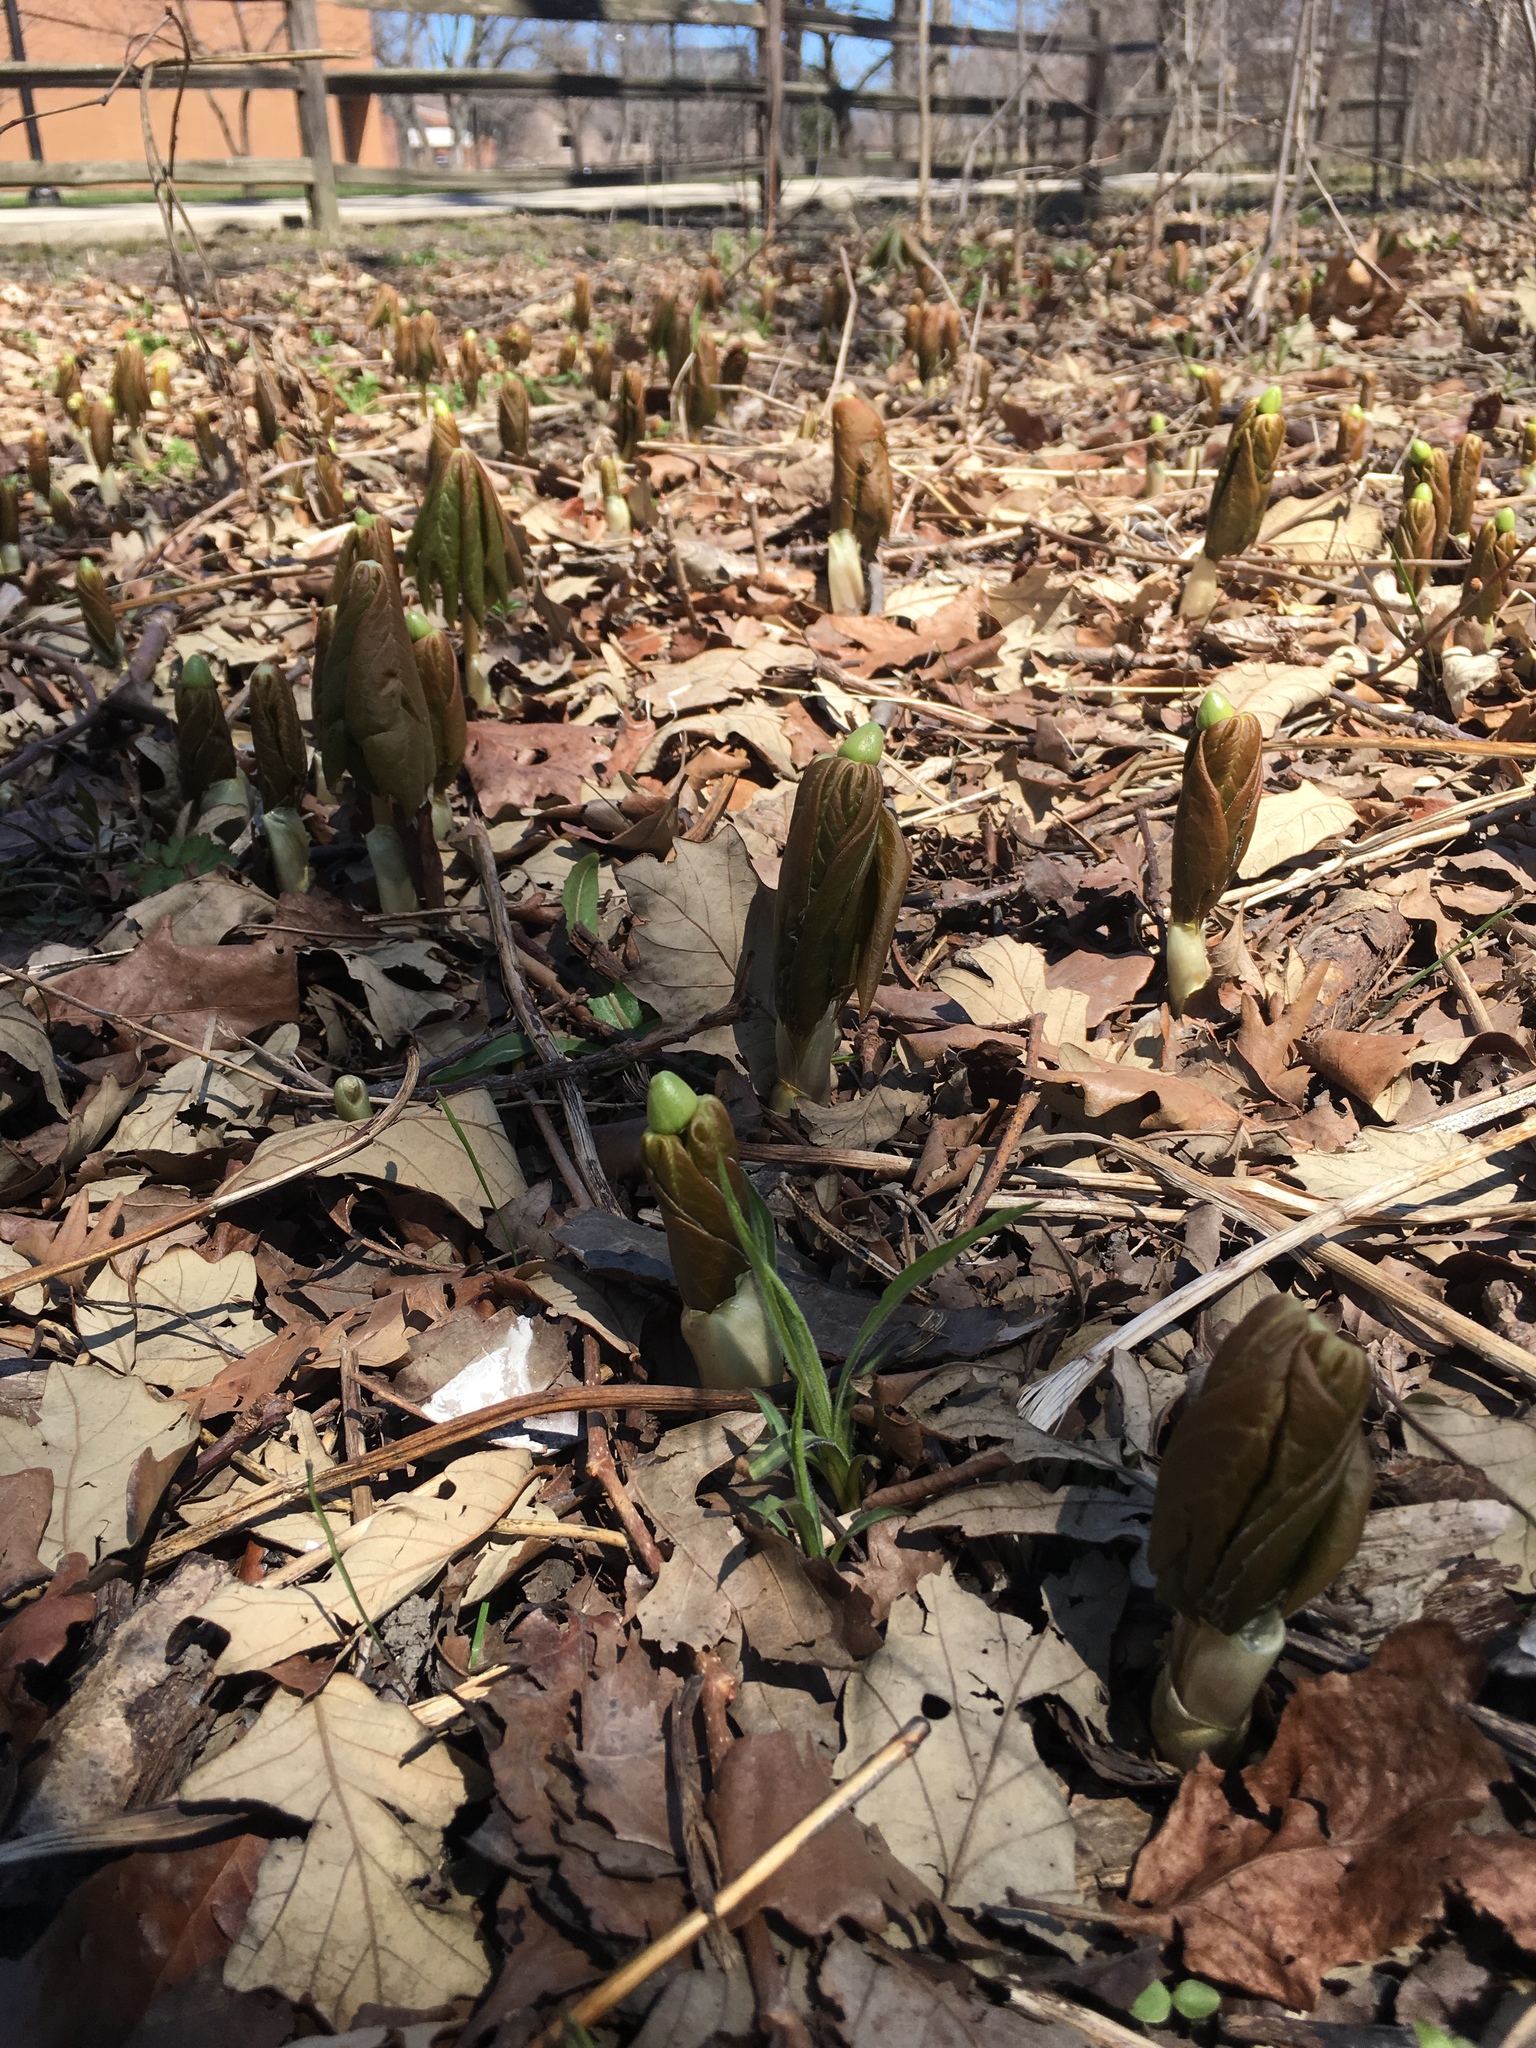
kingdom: Plantae
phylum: Tracheophyta
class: Magnoliopsida
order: Ranunculales
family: Berberidaceae
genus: Podophyllum
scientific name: Podophyllum peltatum
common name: Wild mandrake
